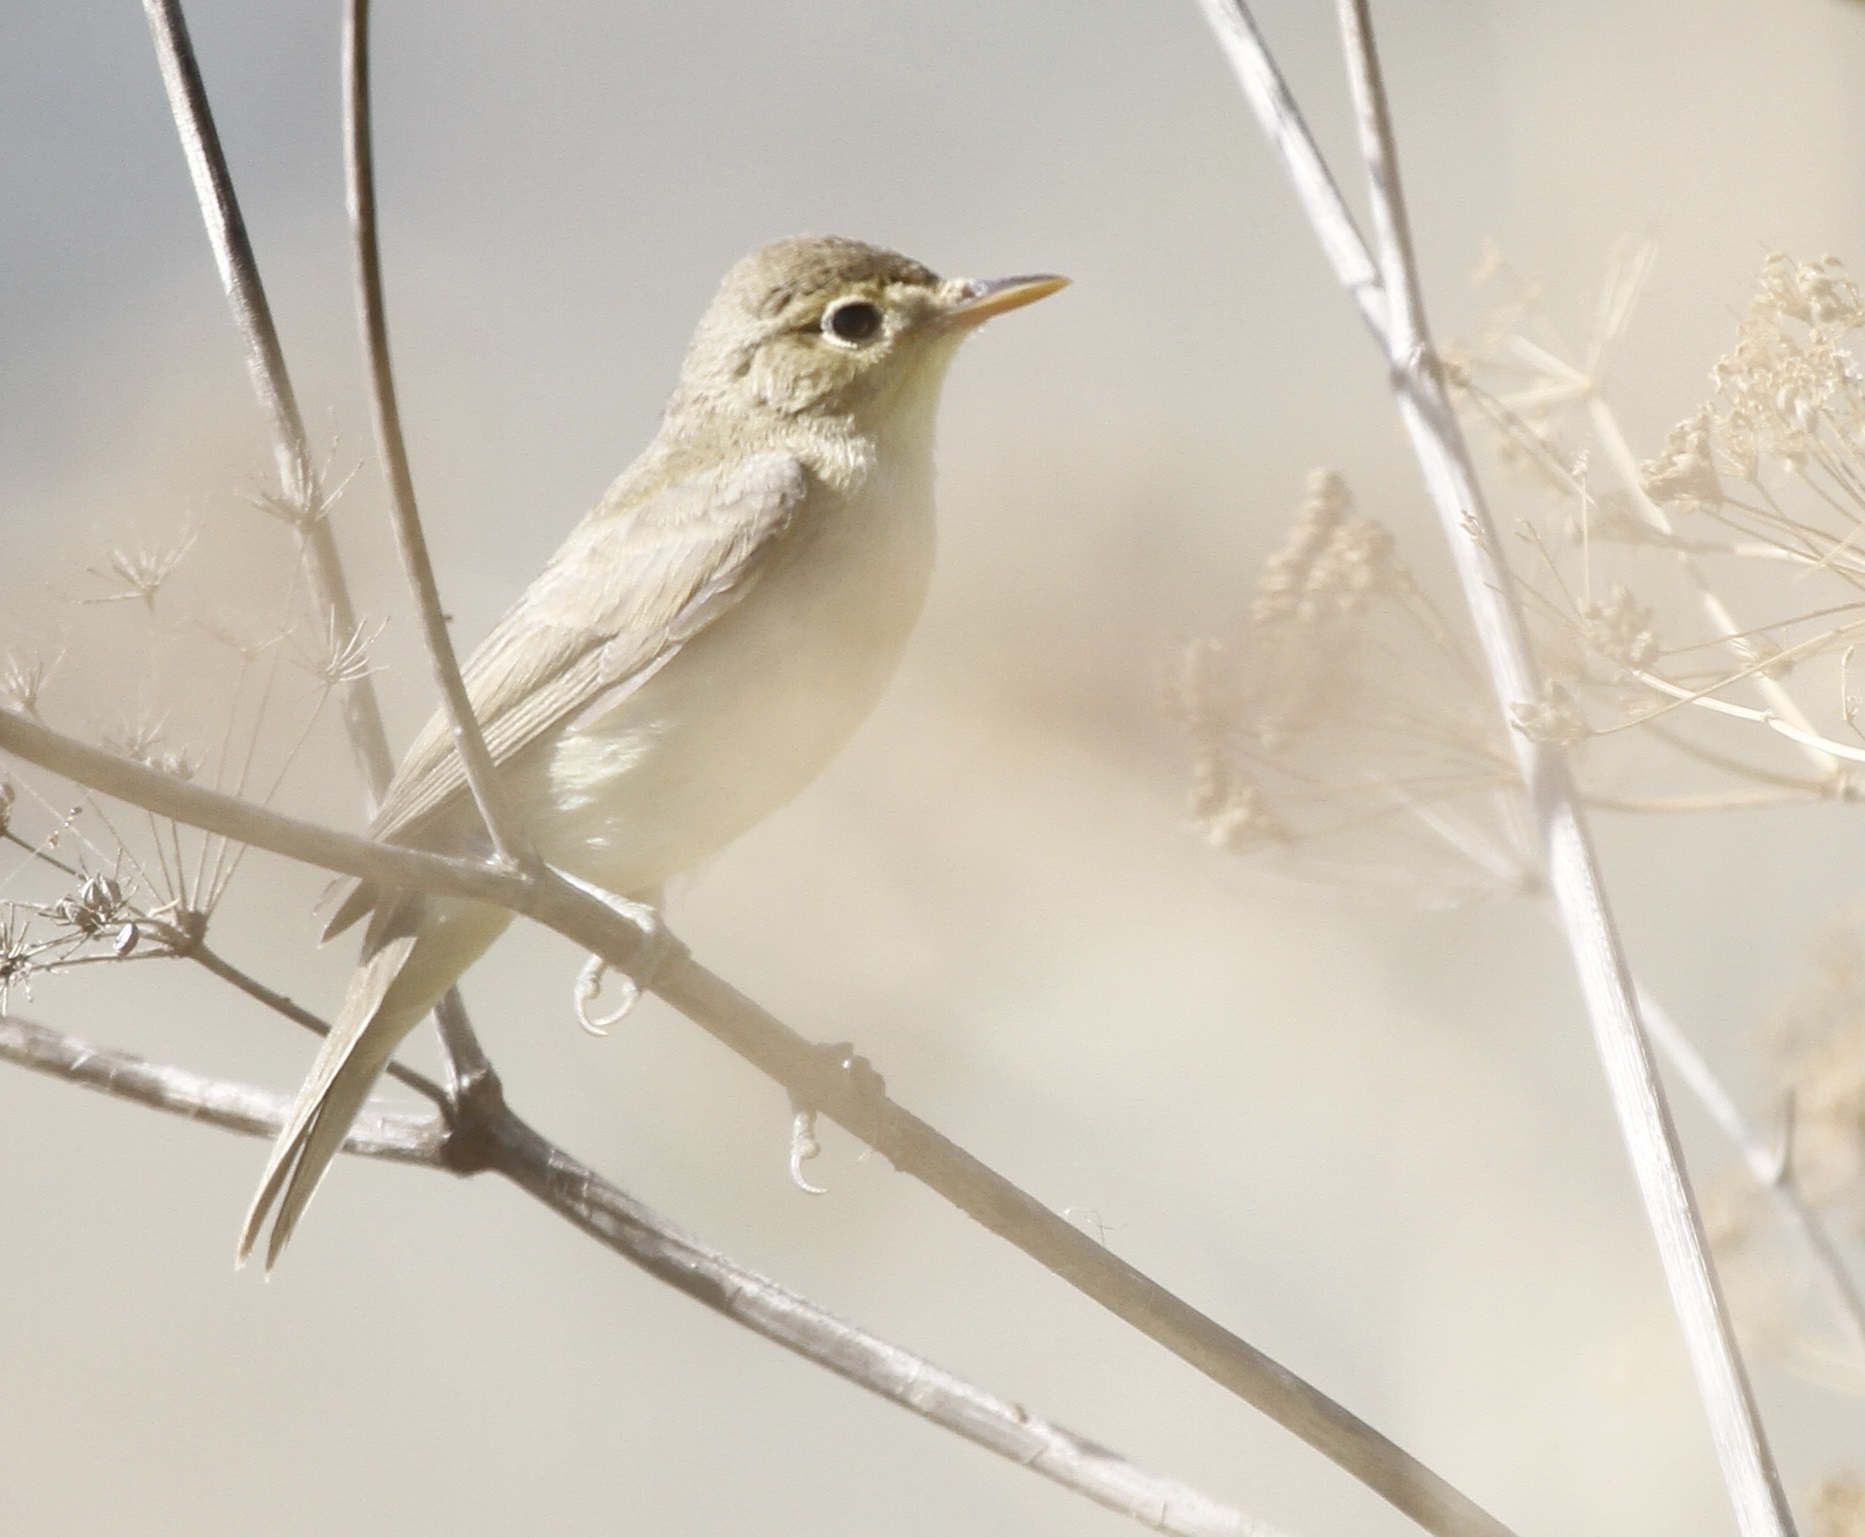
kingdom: Animalia
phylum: Chordata
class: Aves
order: Passeriformes
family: Acrocephalidae
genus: Iduna
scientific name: Iduna opaca
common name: Western olivaceous warbler
